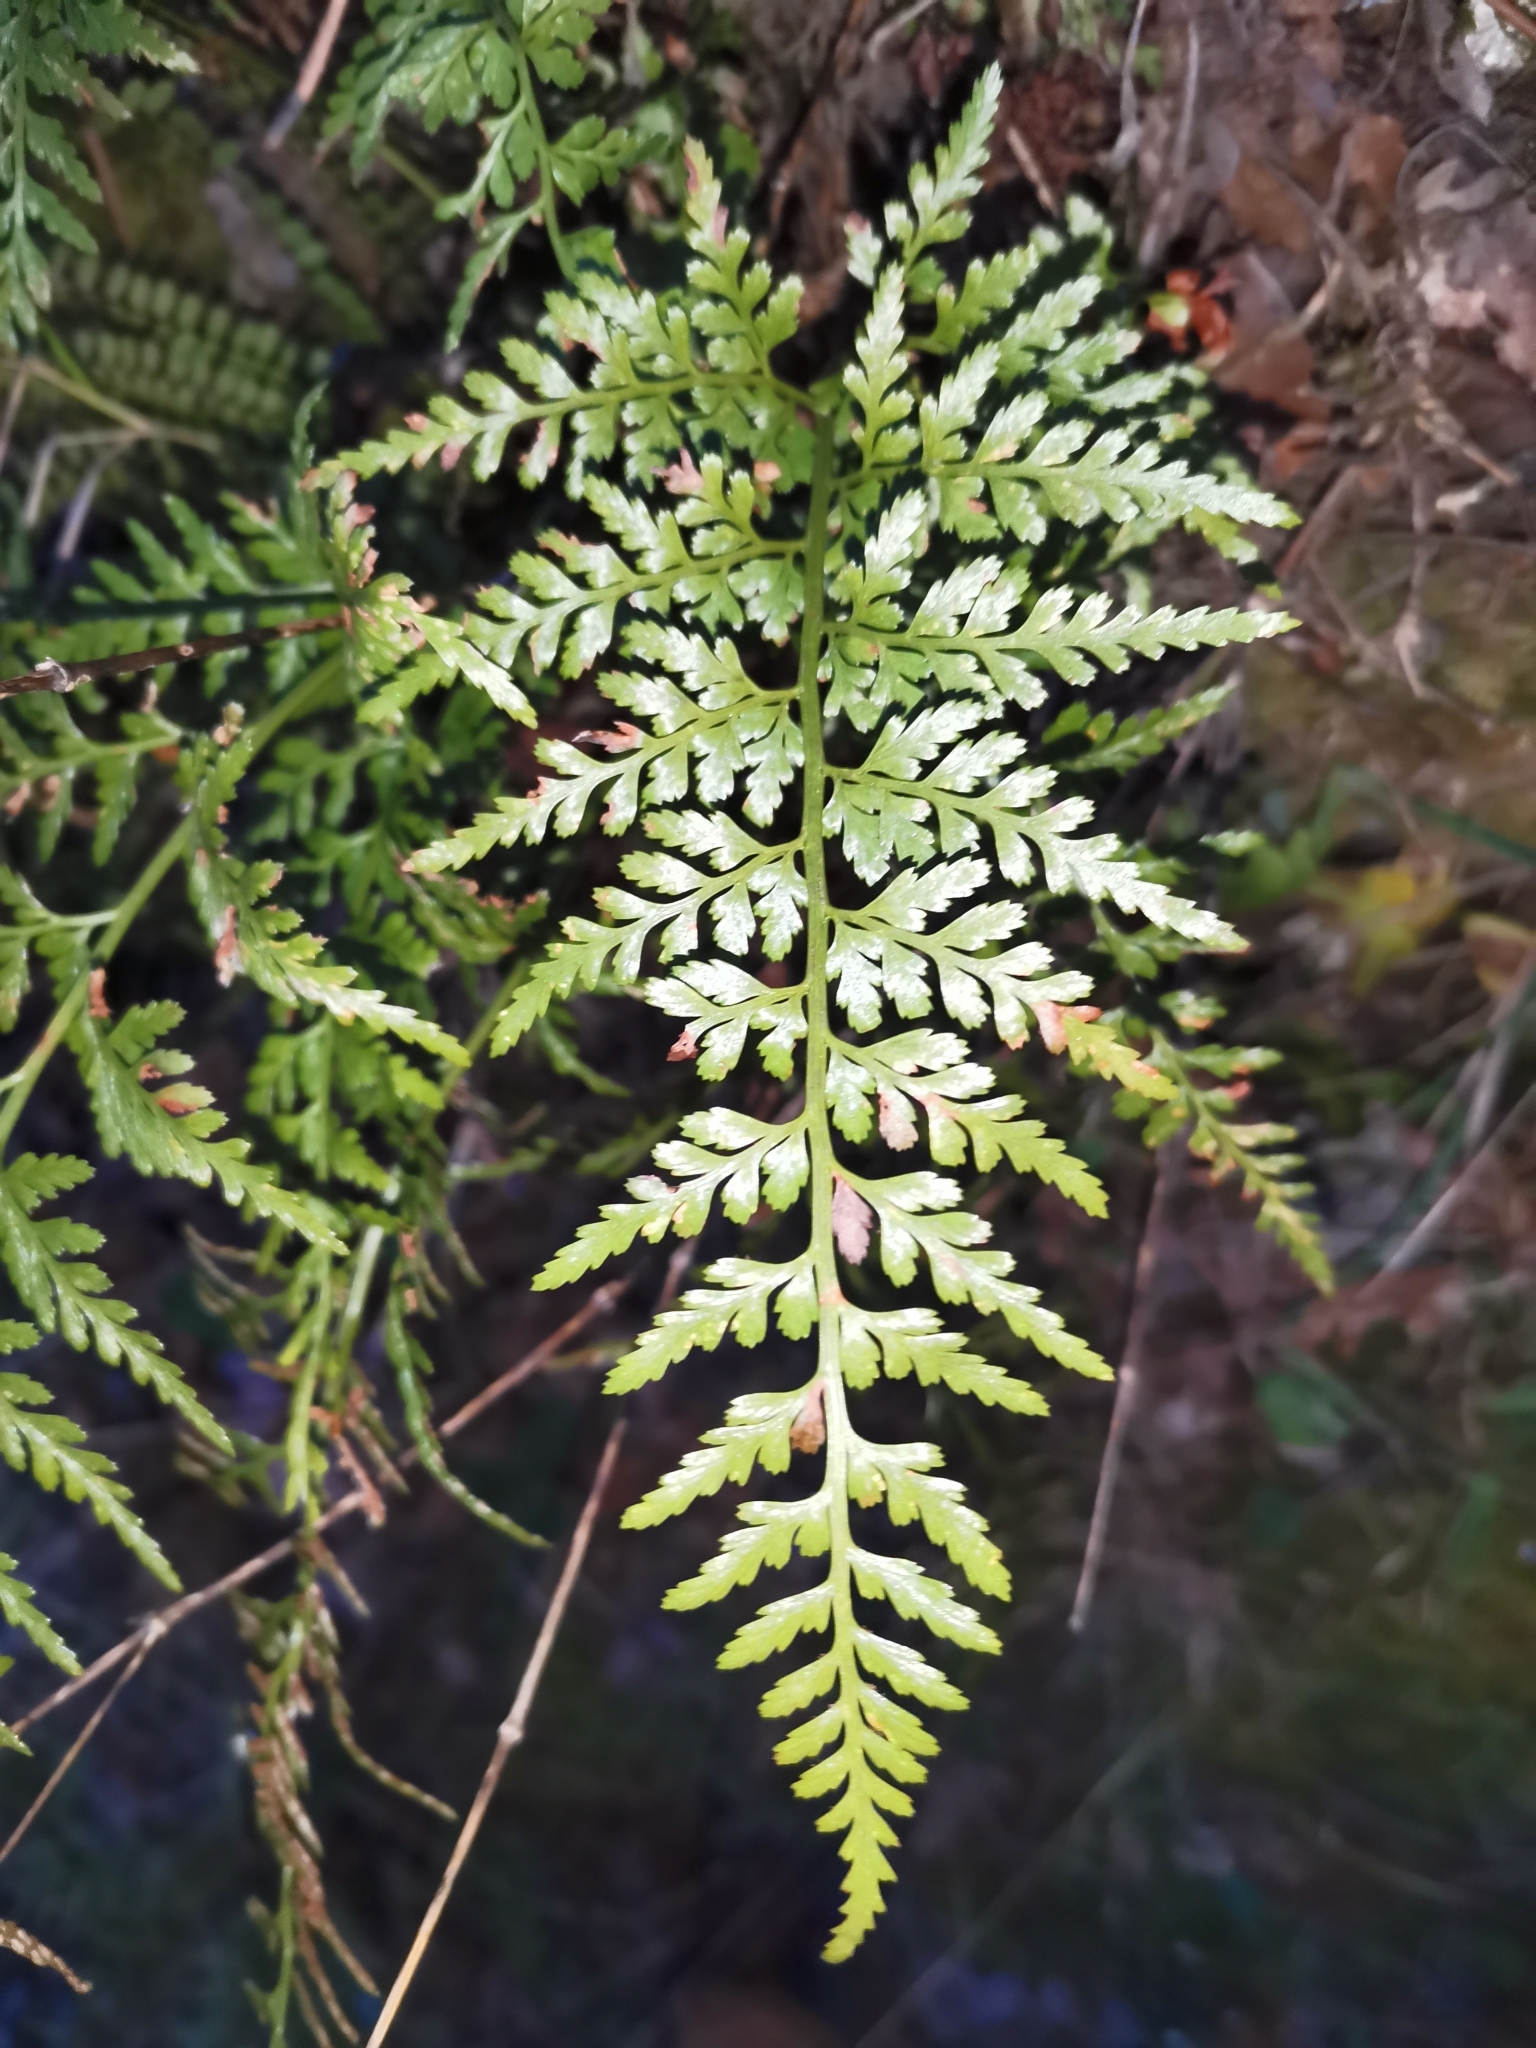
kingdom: Plantae
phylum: Tracheophyta
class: Polypodiopsida
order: Polypodiales
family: Aspleniaceae
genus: Asplenium
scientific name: Asplenium adiantum-nigrum
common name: Black spleenwort
